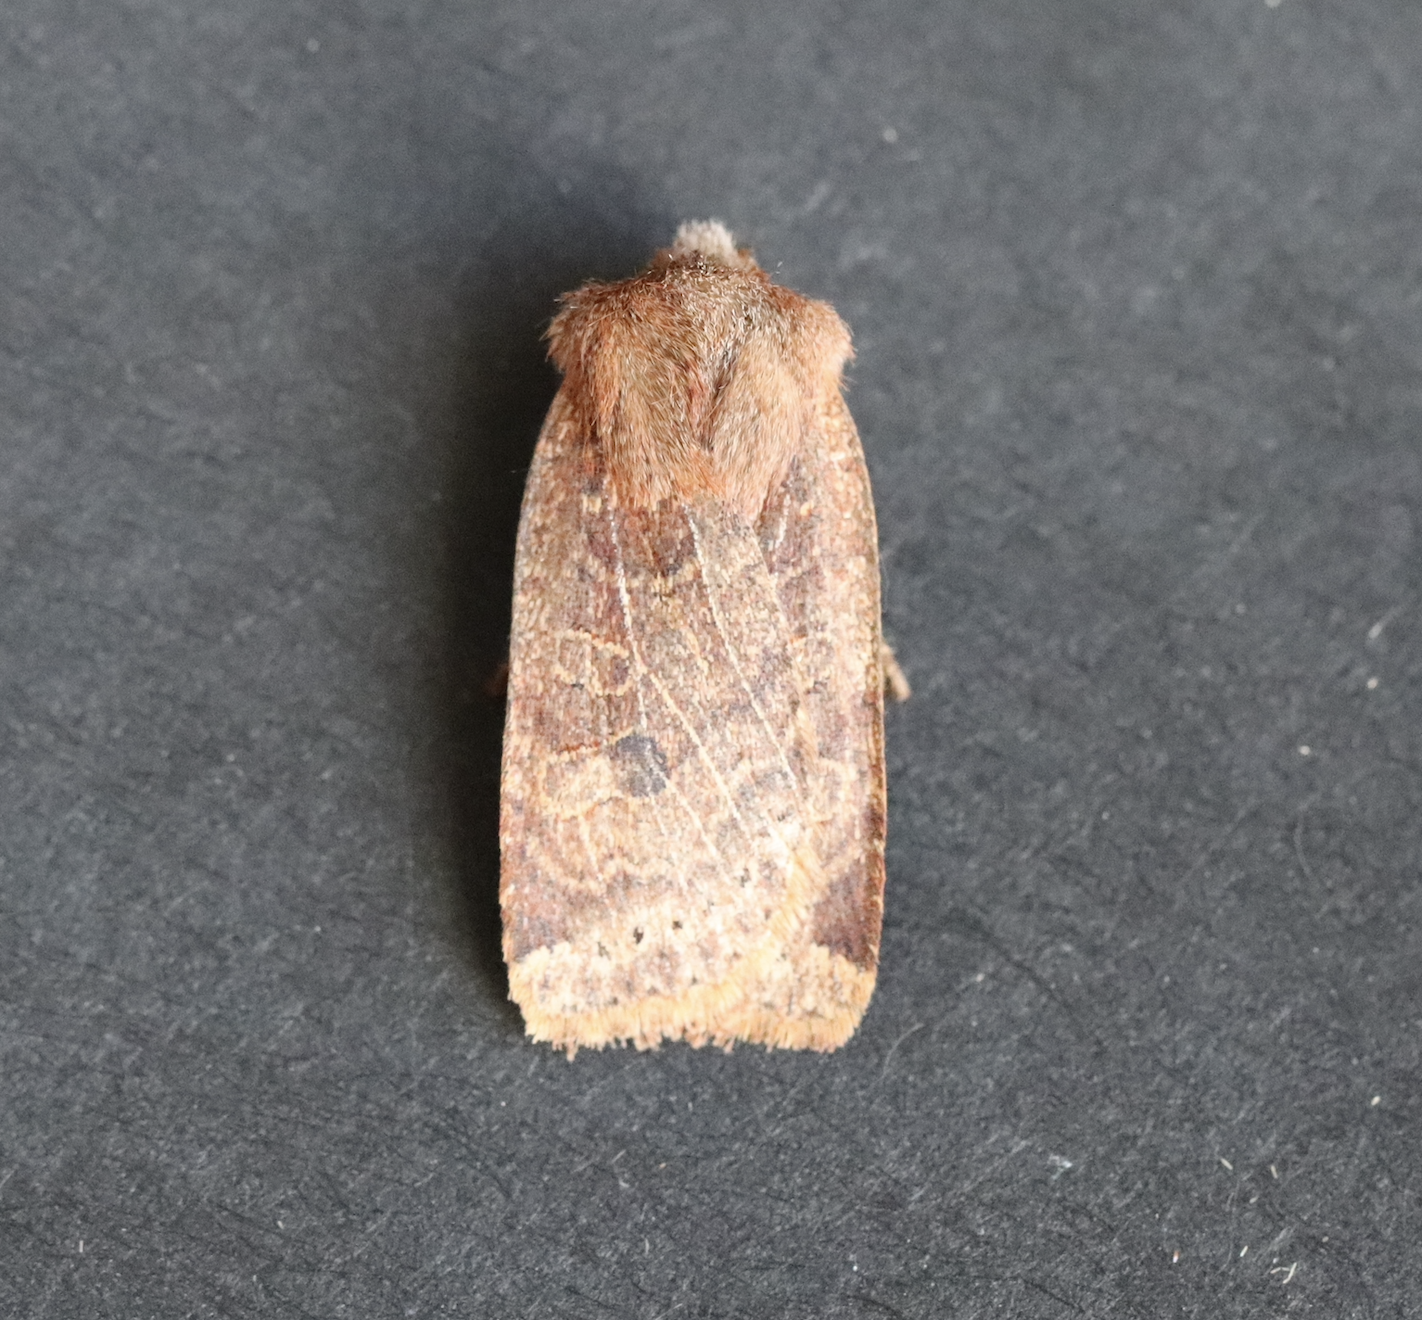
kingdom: Animalia
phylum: Arthropoda
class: Insecta
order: Lepidoptera
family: Noctuidae
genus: Conistra
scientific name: Conistra vaccinii
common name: Chestnut
